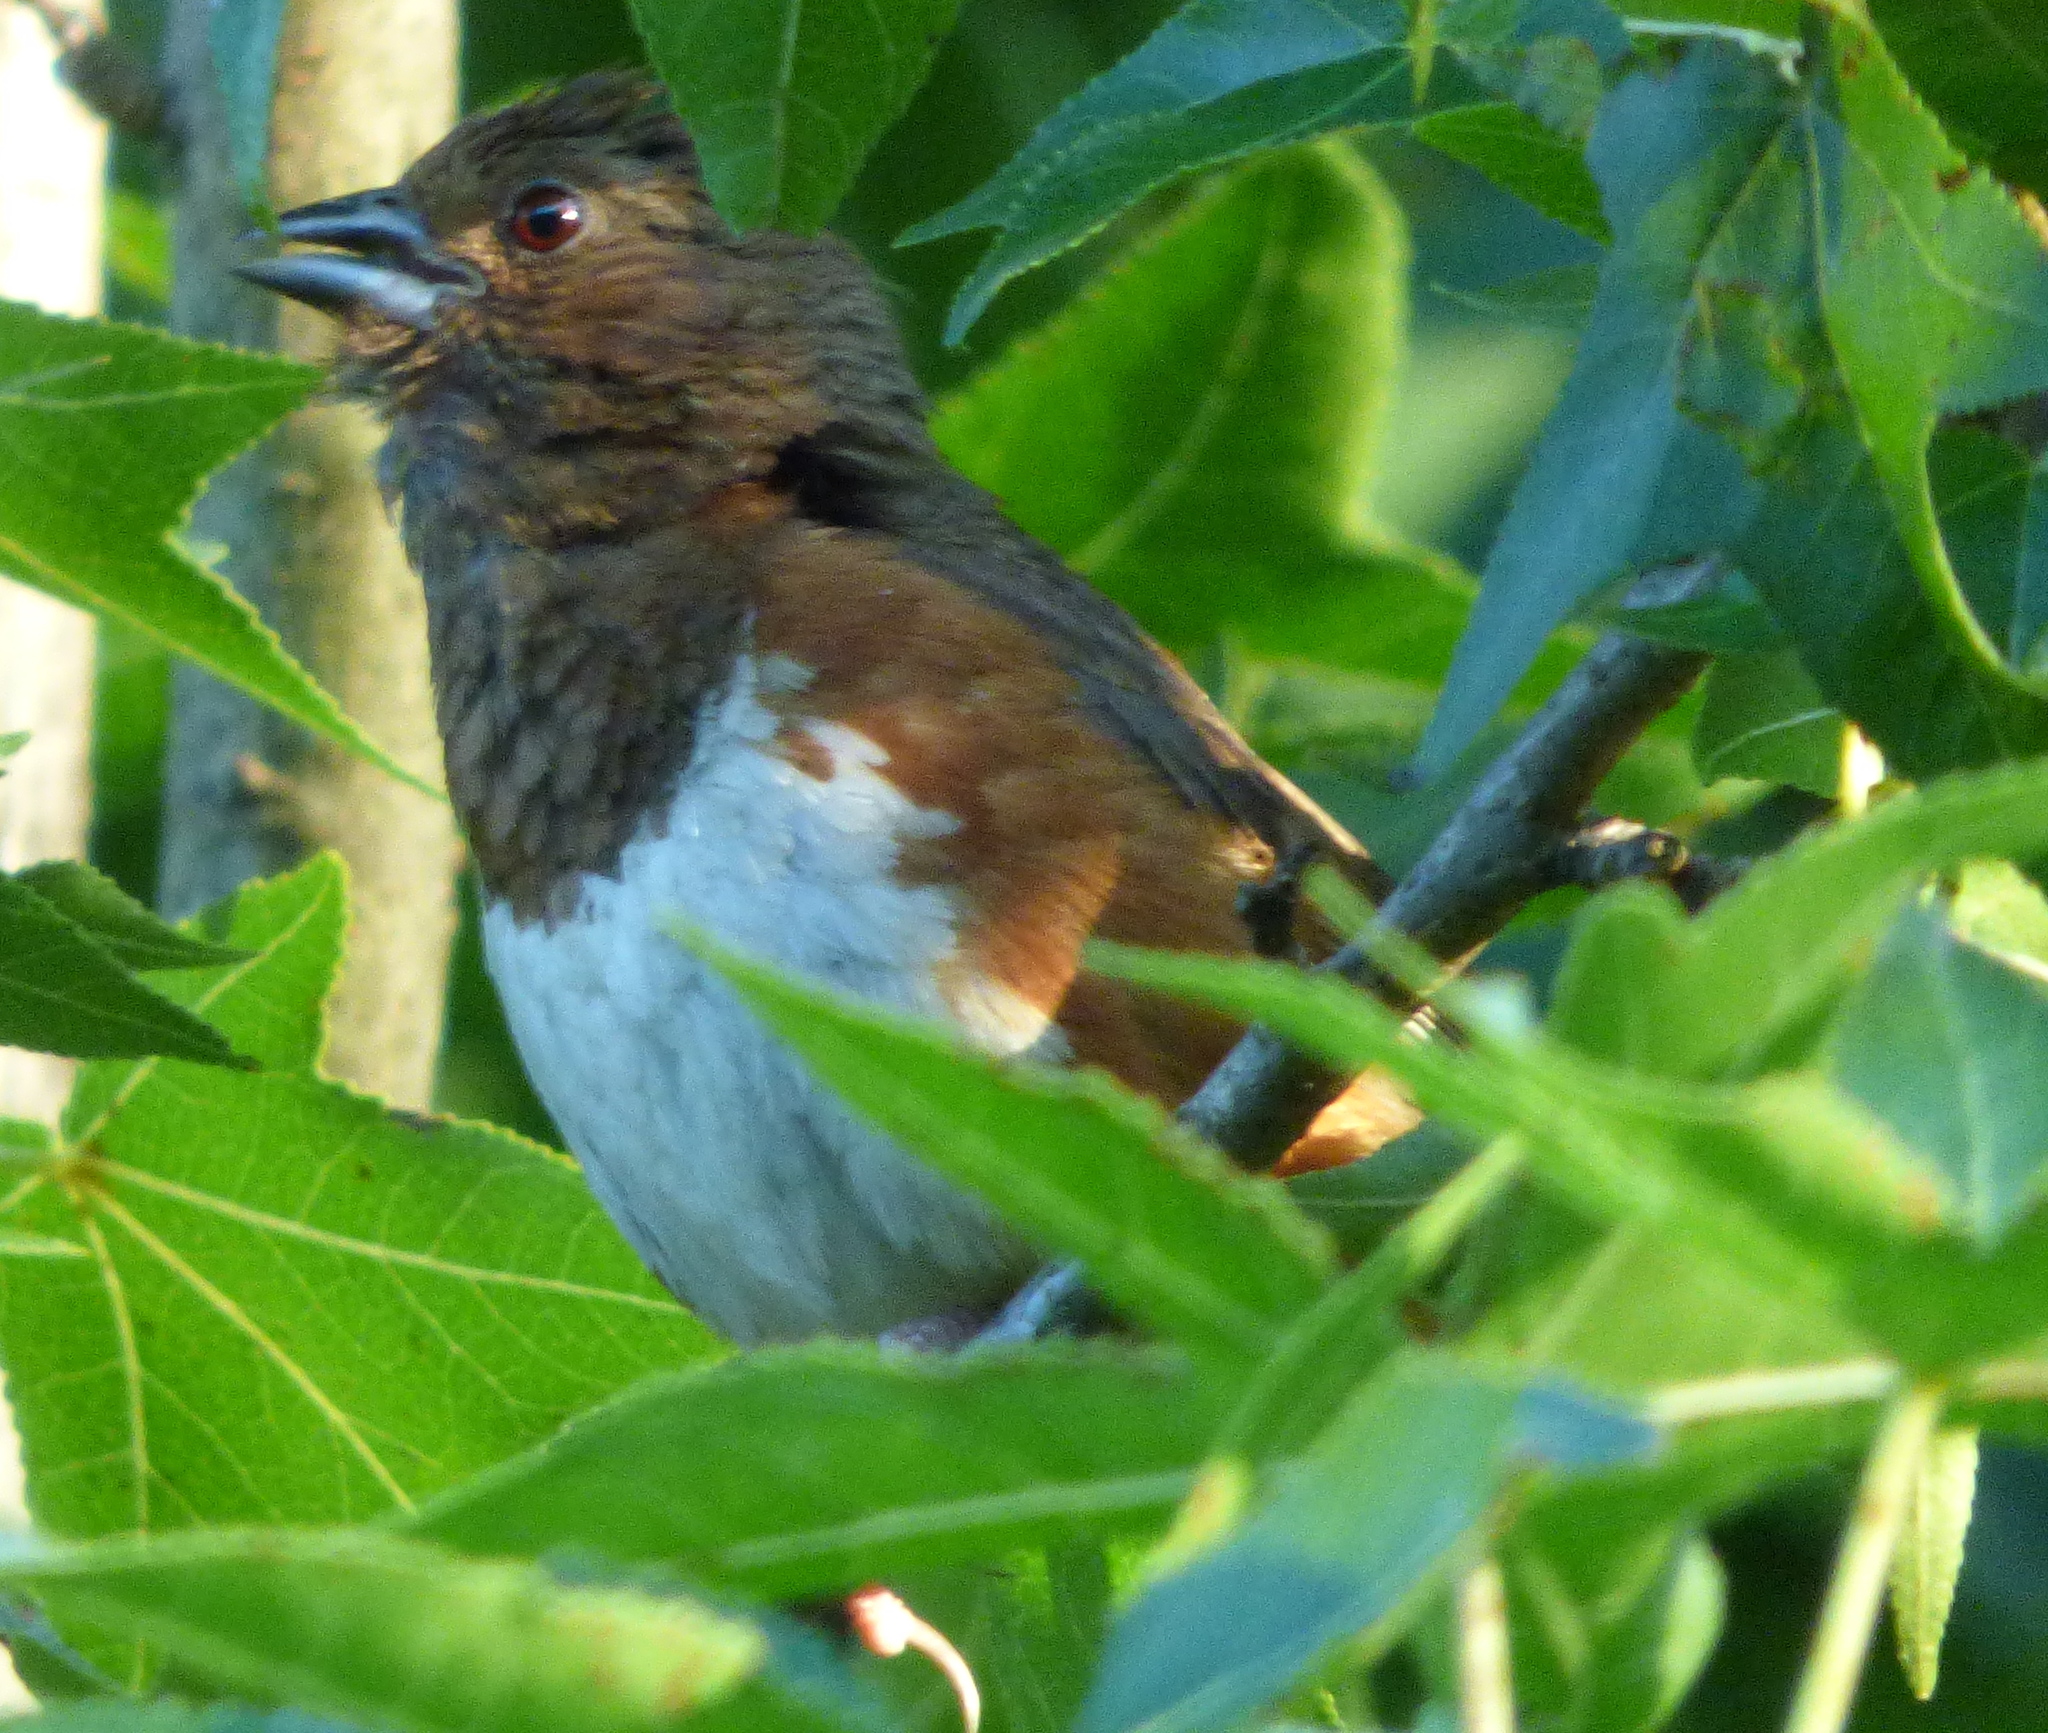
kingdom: Animalia
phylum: Chordata
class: Aves
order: Passeriformes
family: Passerellidae
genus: Pipilo
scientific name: Pipilo erythrophthalmus
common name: Eastern towhee
